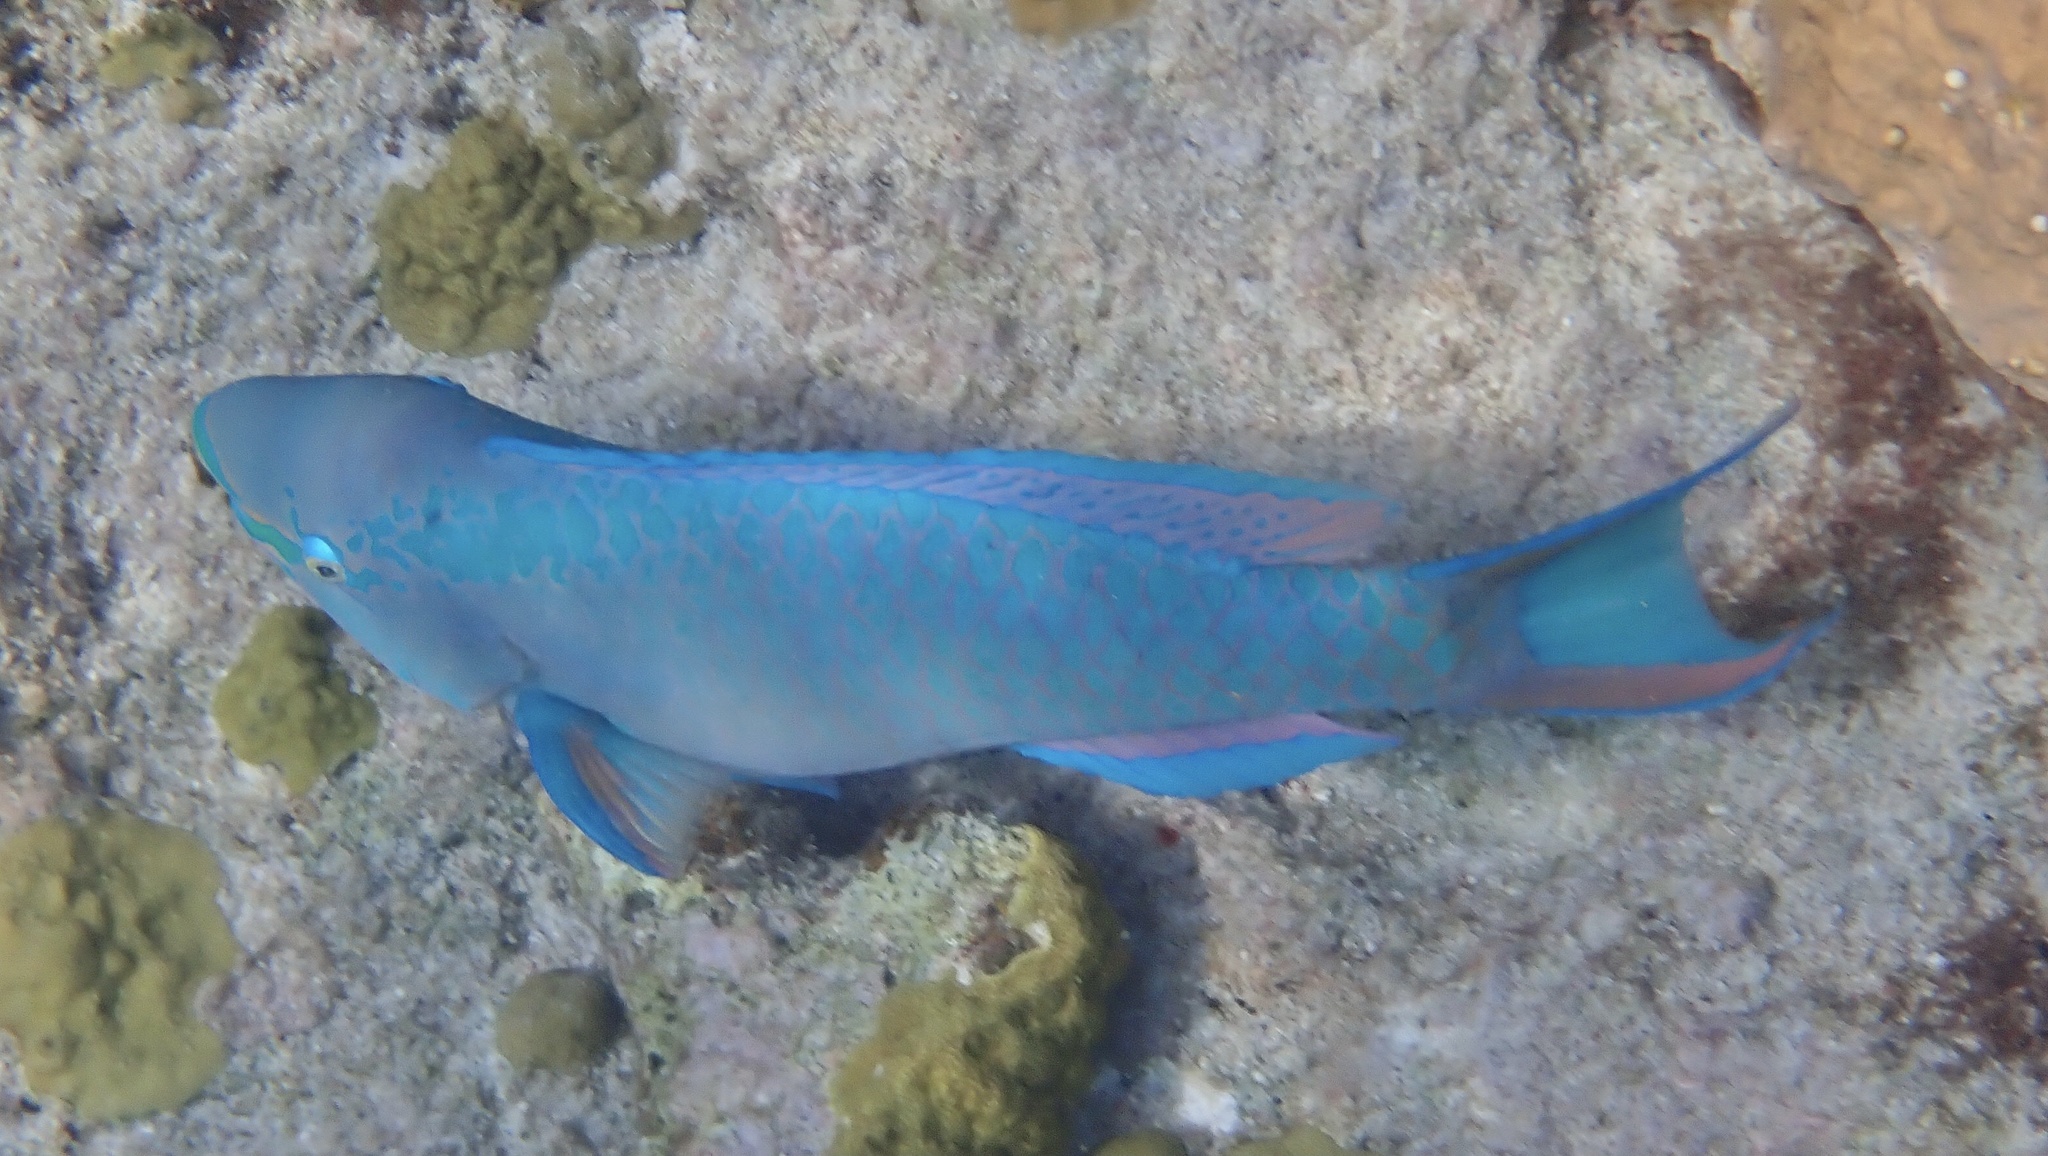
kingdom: Animalia
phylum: Chordata
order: Perciformes
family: Scaridae
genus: Scarus
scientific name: Scarus vetula
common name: Queen parrotfish
